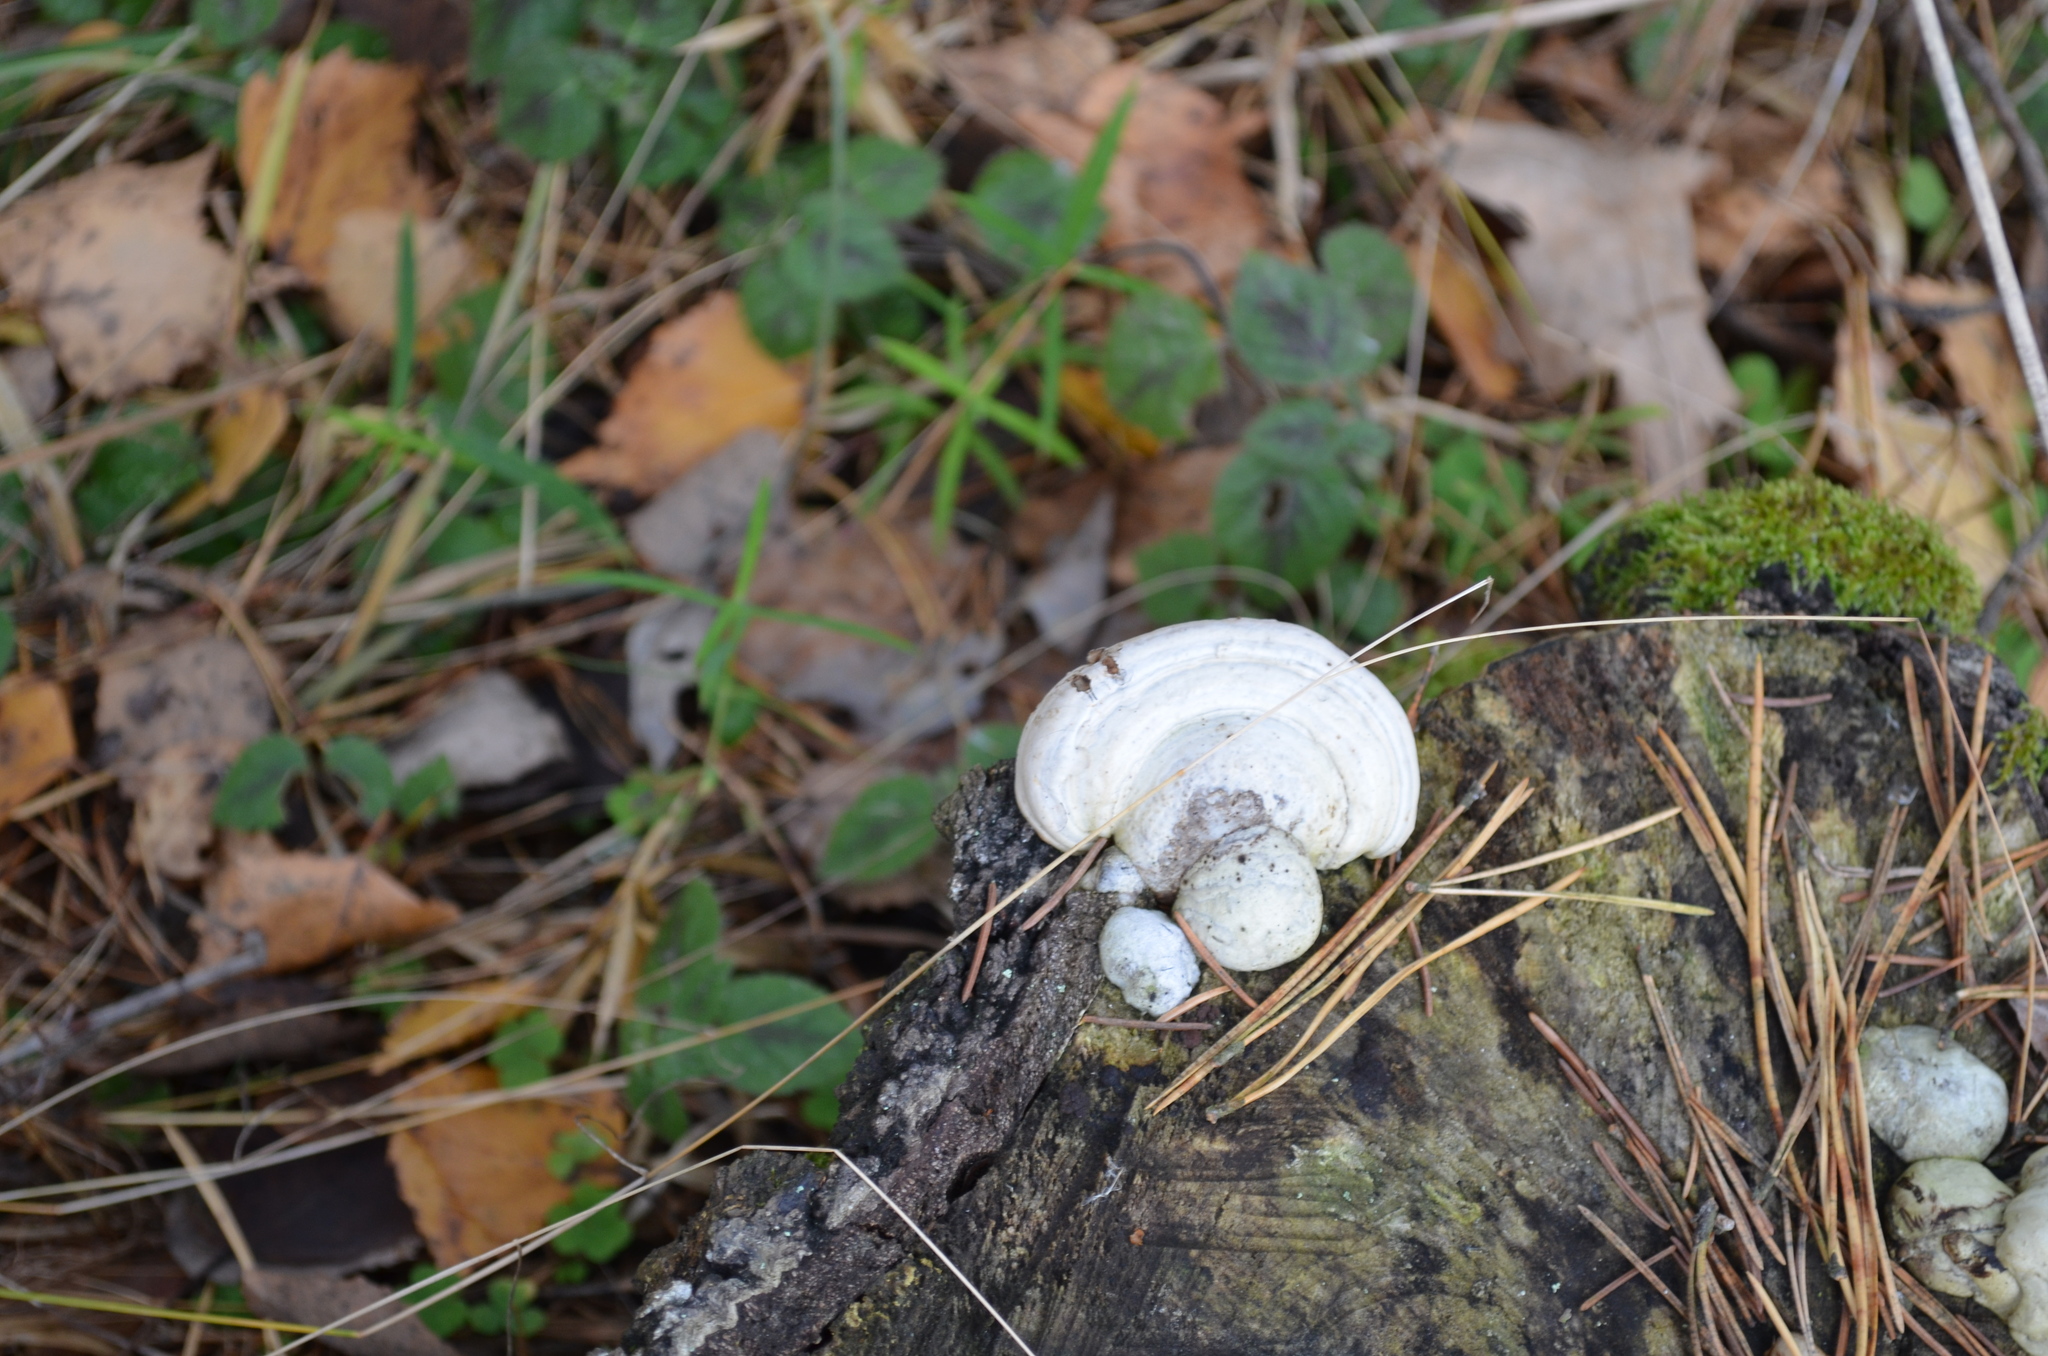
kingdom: Fungi
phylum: Basidiomycota
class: Agaricomycetes
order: Polyporales
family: Polyporaceae
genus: Fomes
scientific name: Fomes fomentarius
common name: Hoof fungus
